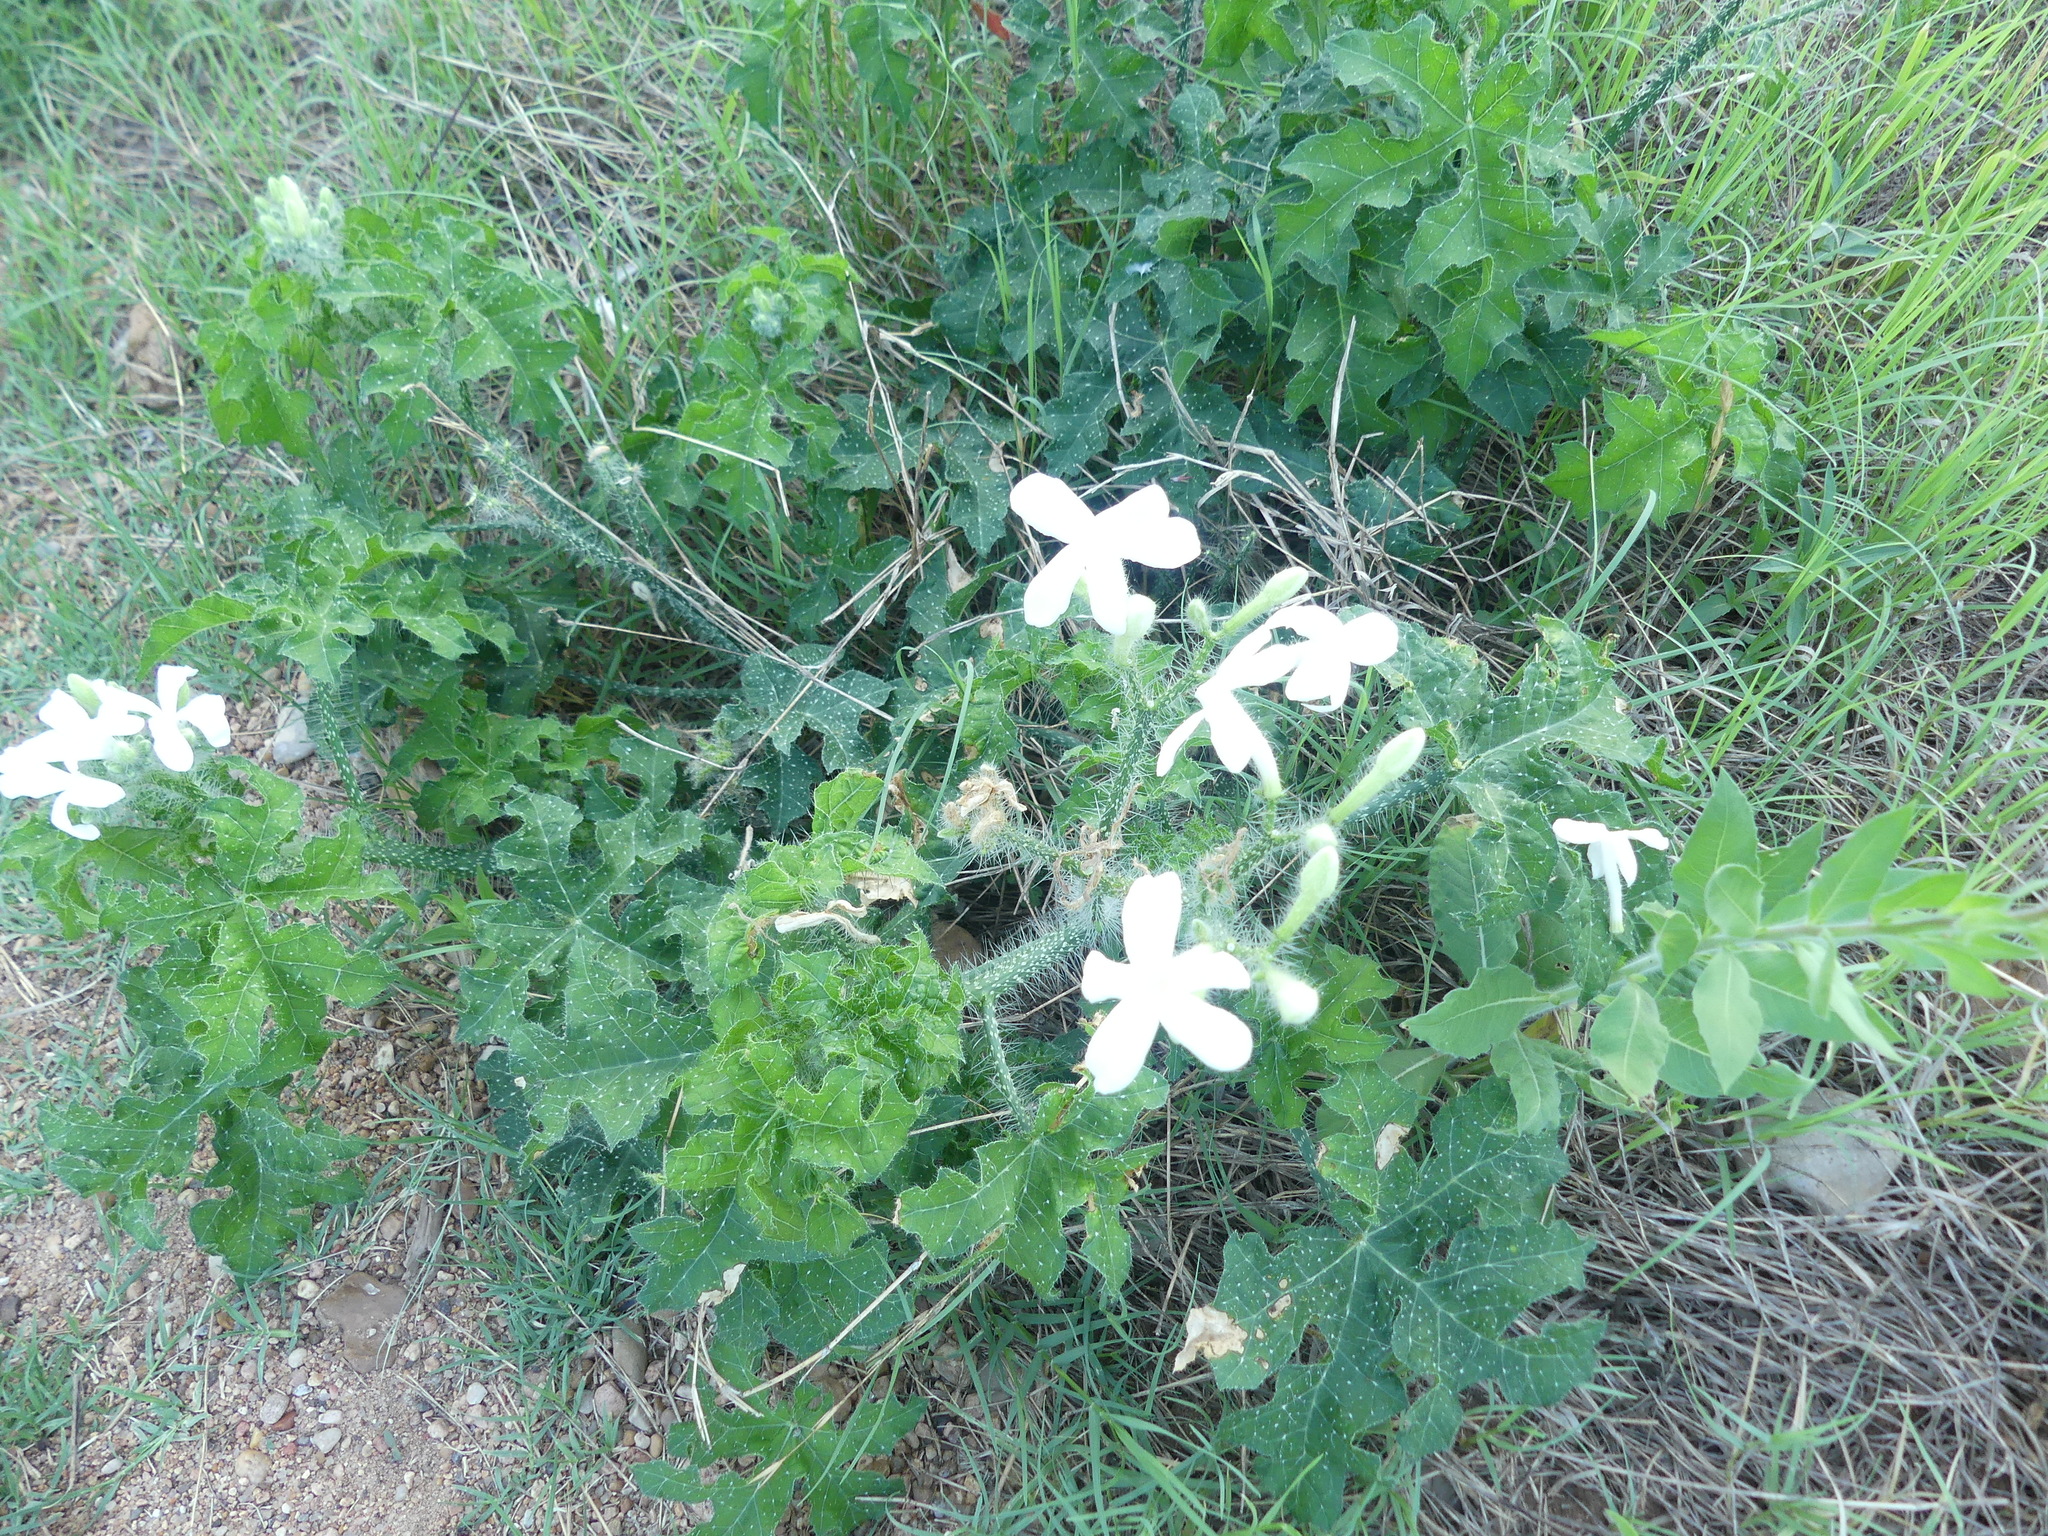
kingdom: Plantae
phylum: Tracheophyta
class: Magnoliopsida
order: Malpighiales
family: Euphorbiaceae
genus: Cnidoscolus
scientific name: Cnidoscolus texanus
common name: Texas bull-nettle
